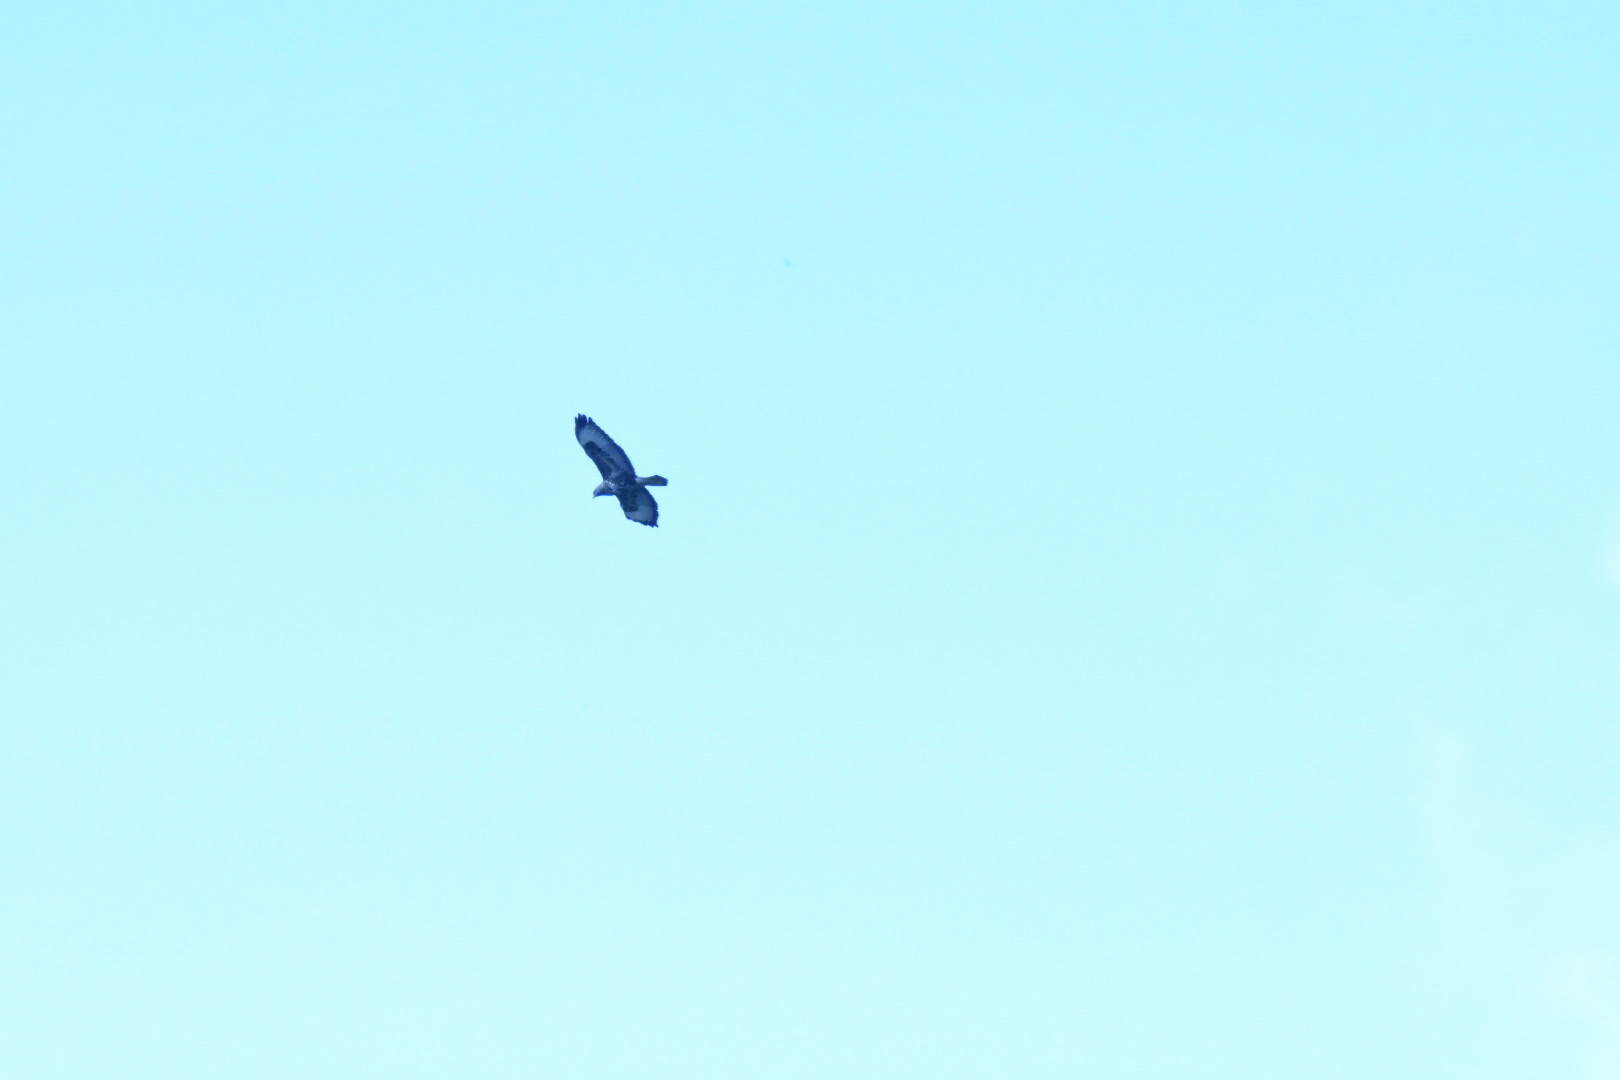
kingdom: Animalia
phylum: Chordata
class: Aves
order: Accipitriformes
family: Accipitridae
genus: Buteo
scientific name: Buteo buteo
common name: Common buzzard
